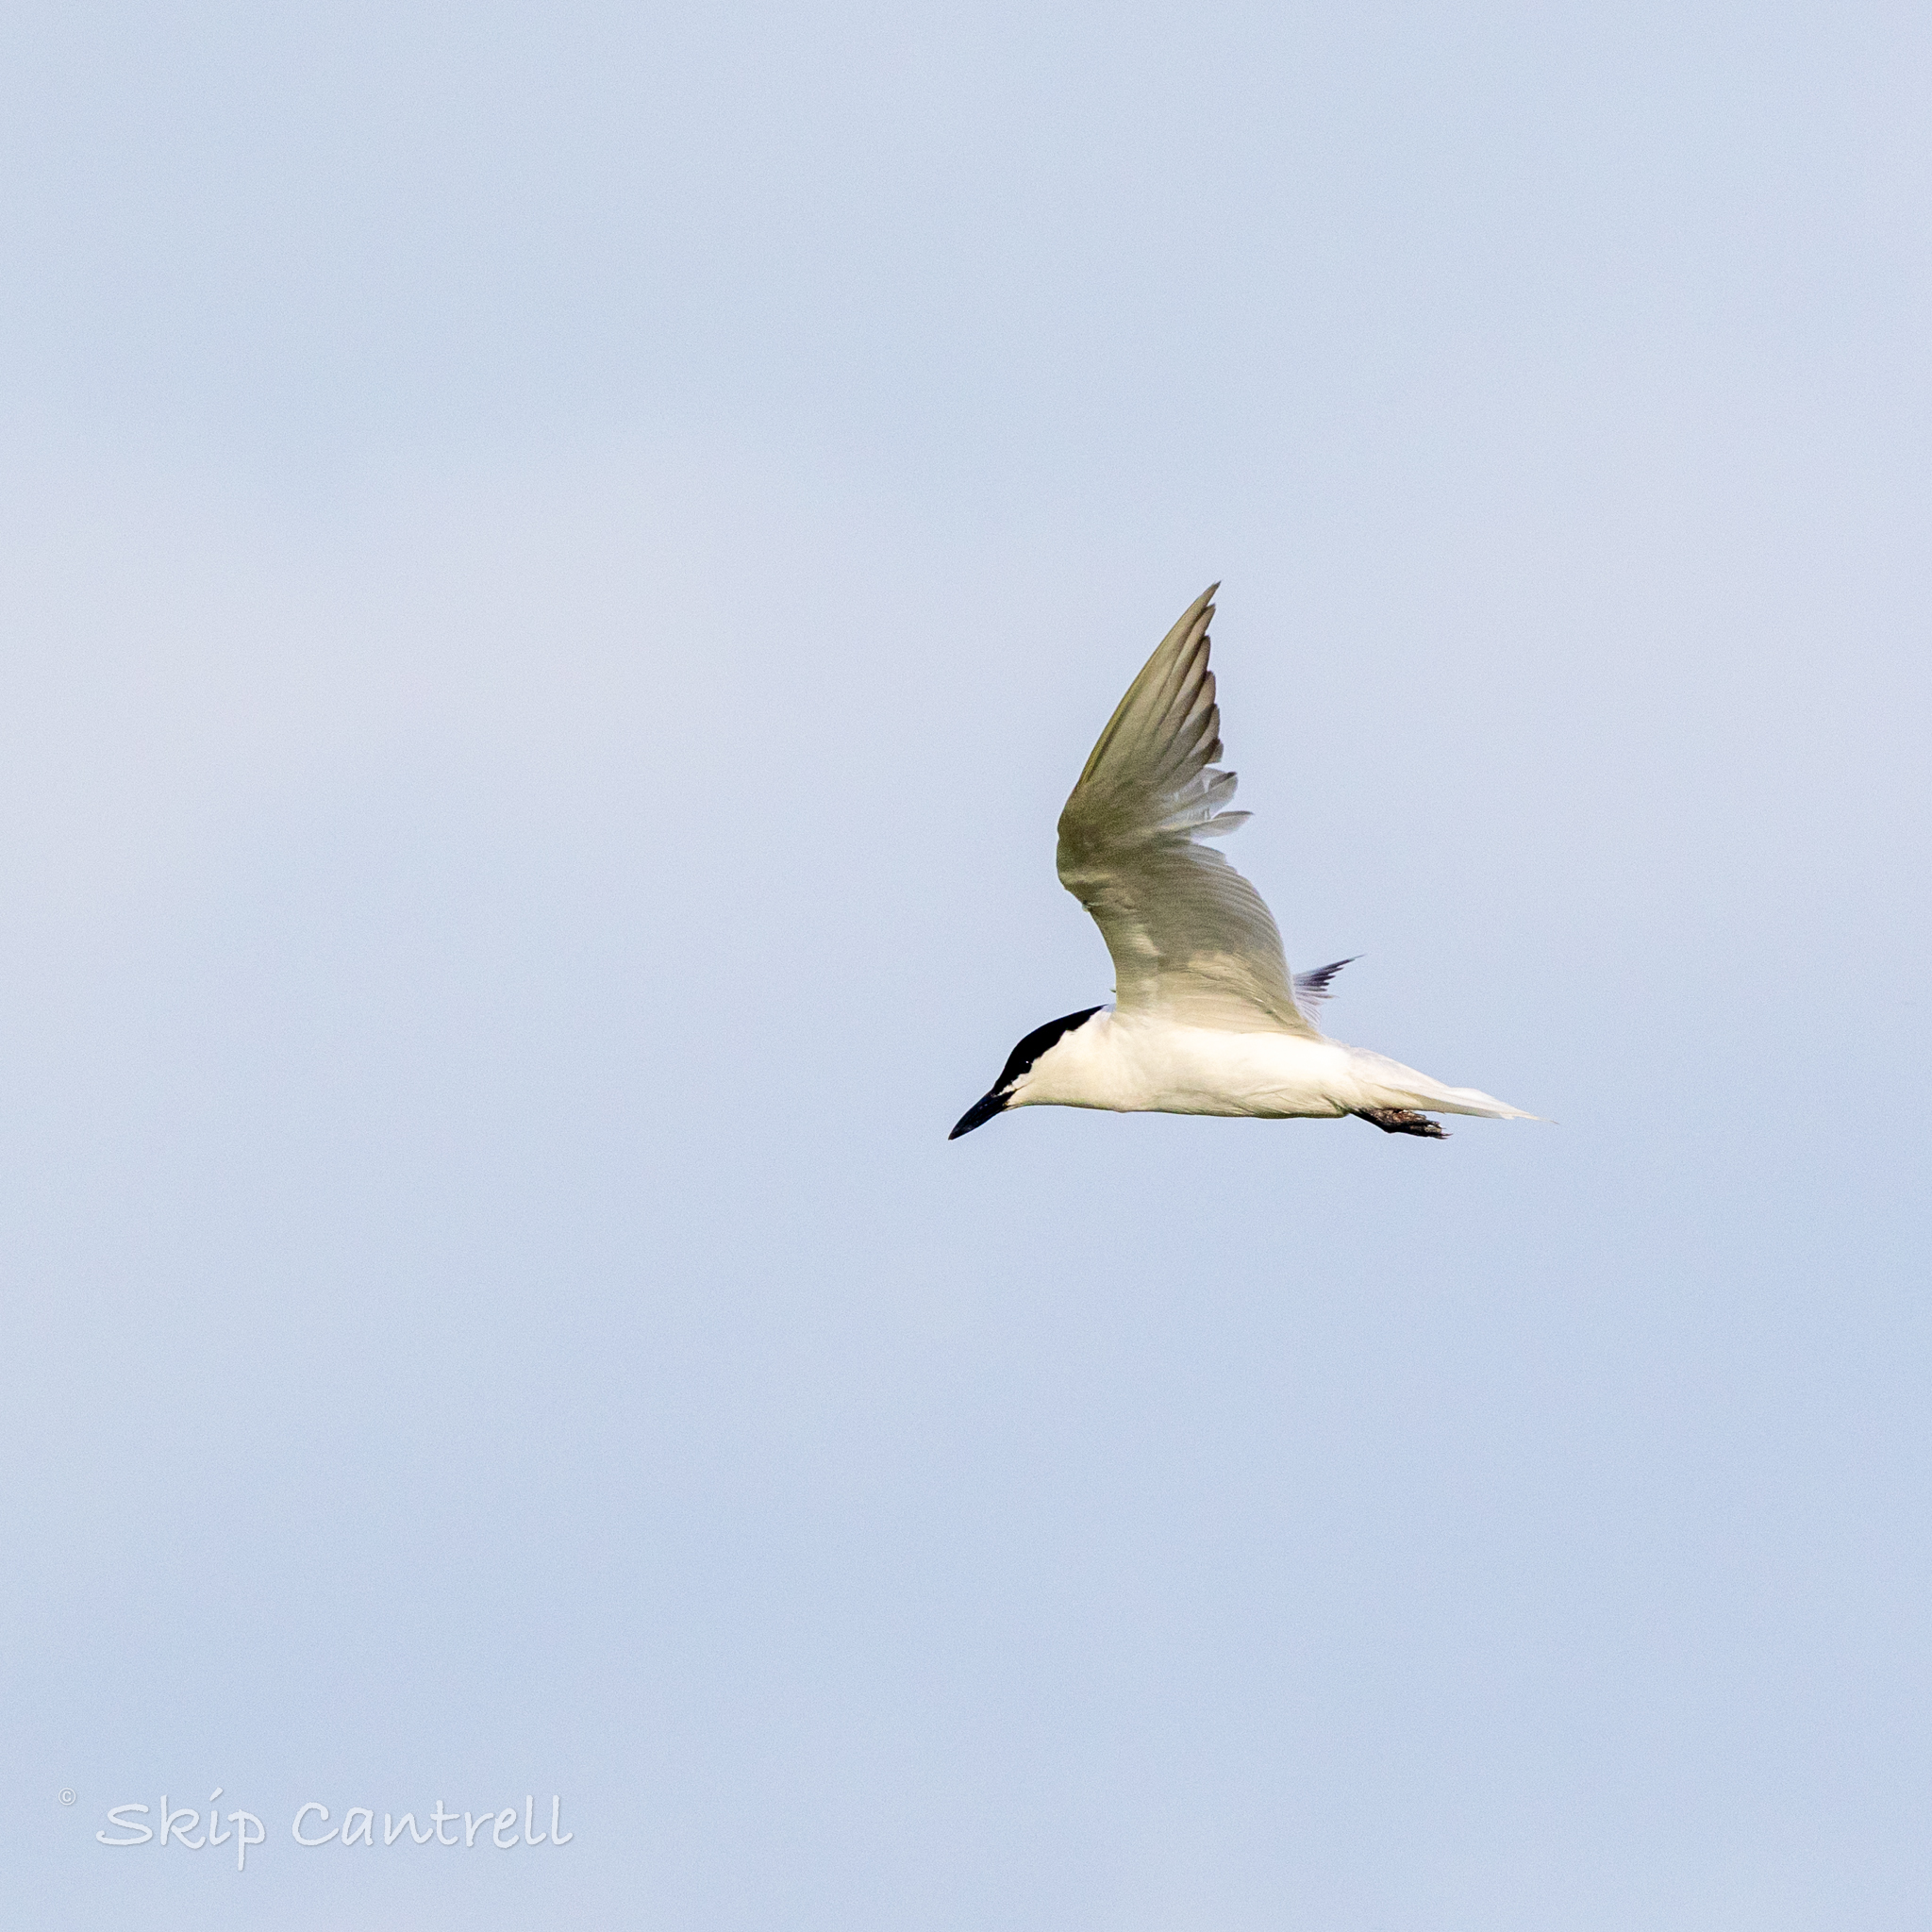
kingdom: Animalia
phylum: Chordata
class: Aves
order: Charadriiformes
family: Laridae
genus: Gelochelidon
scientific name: Gelochelidon nilotica
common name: Gull-billed tern
